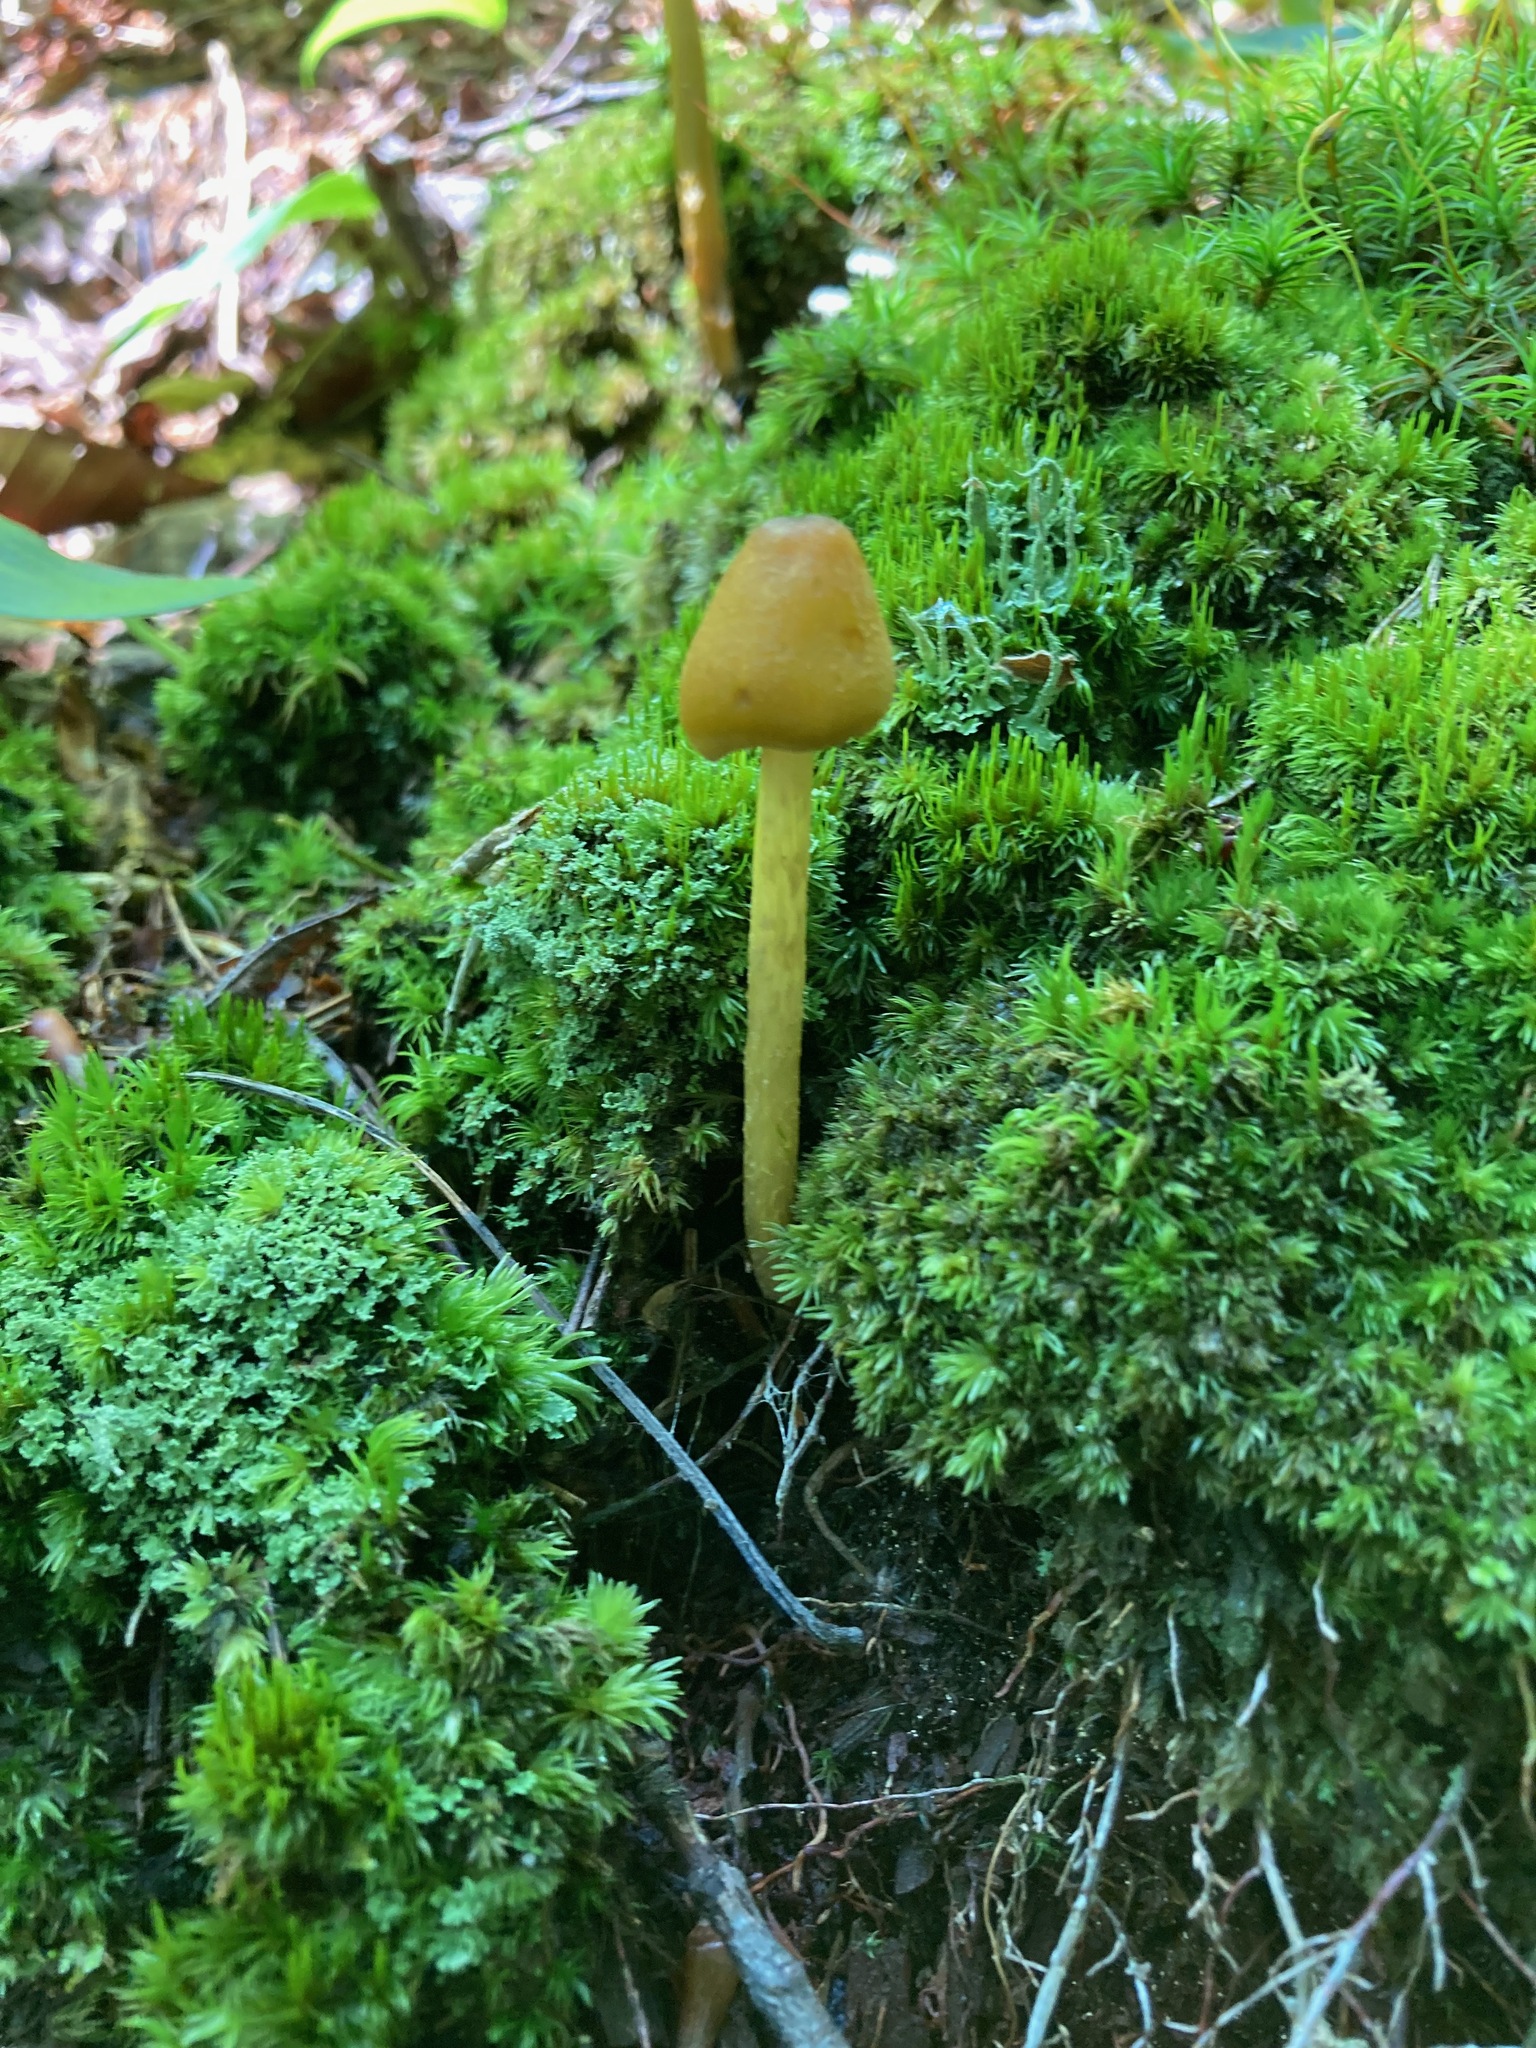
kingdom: Fungi
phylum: Basidiomycota
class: Agaricomycetes
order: Agaricales
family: Entolomataceae
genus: Entoloma
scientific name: Entoloma luteum
